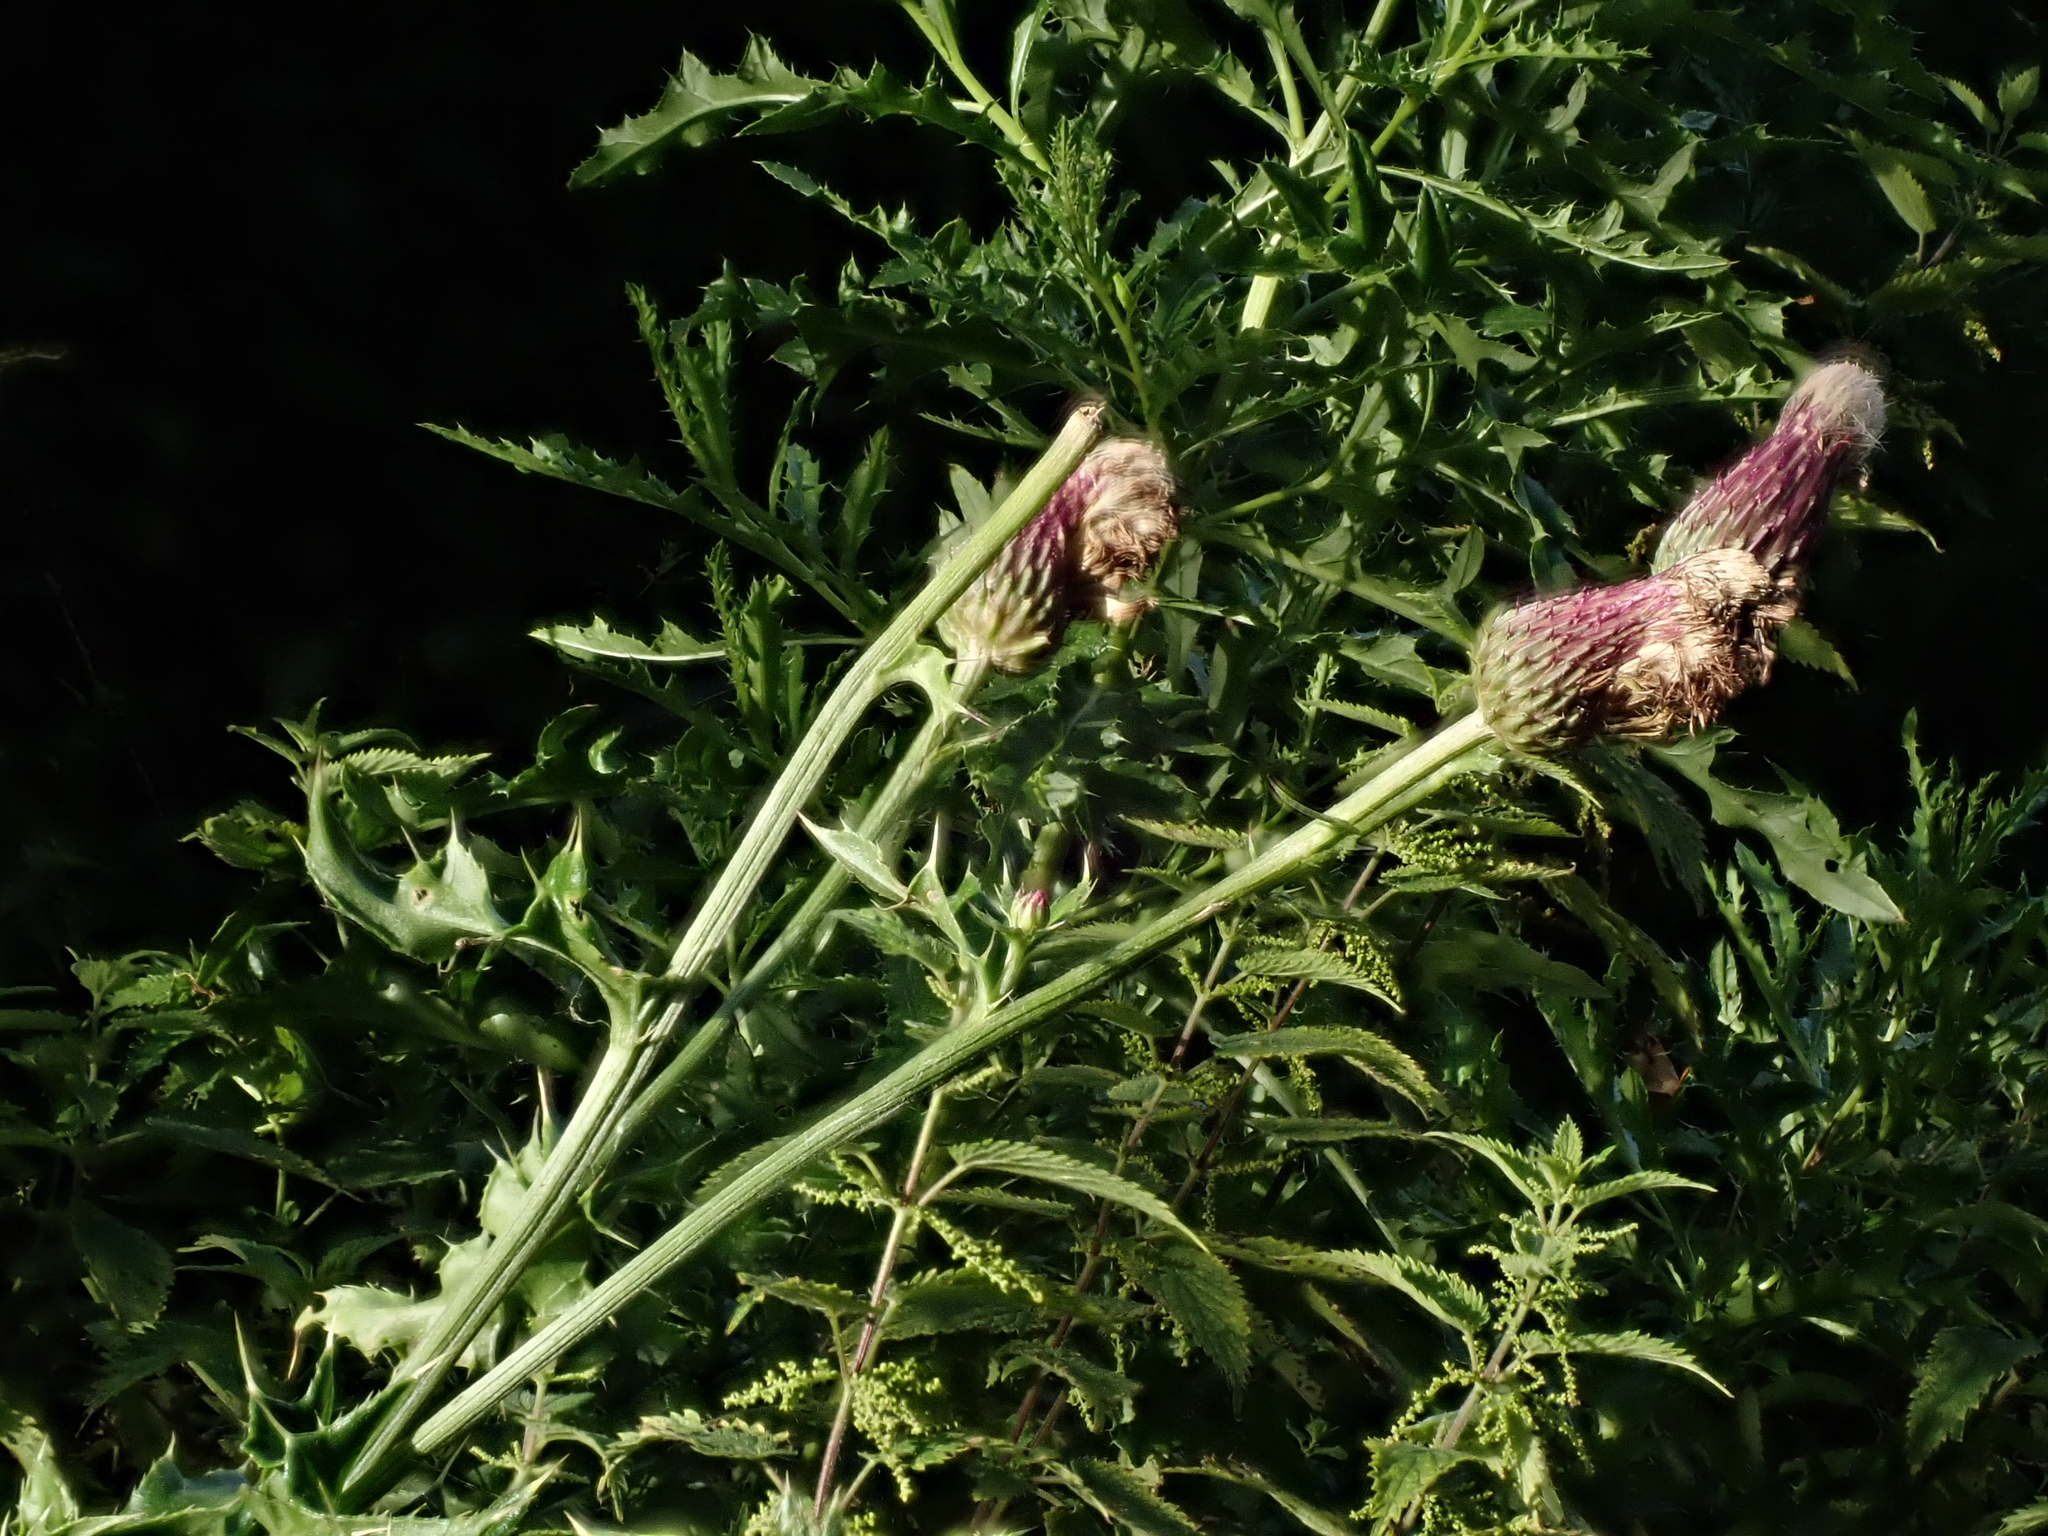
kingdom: Plantae
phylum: Tracheophyta
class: Magnoliopsida
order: Asterales
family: Asteraceae
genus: Cirsium
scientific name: Cirsium arvense
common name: Creeping thistle
